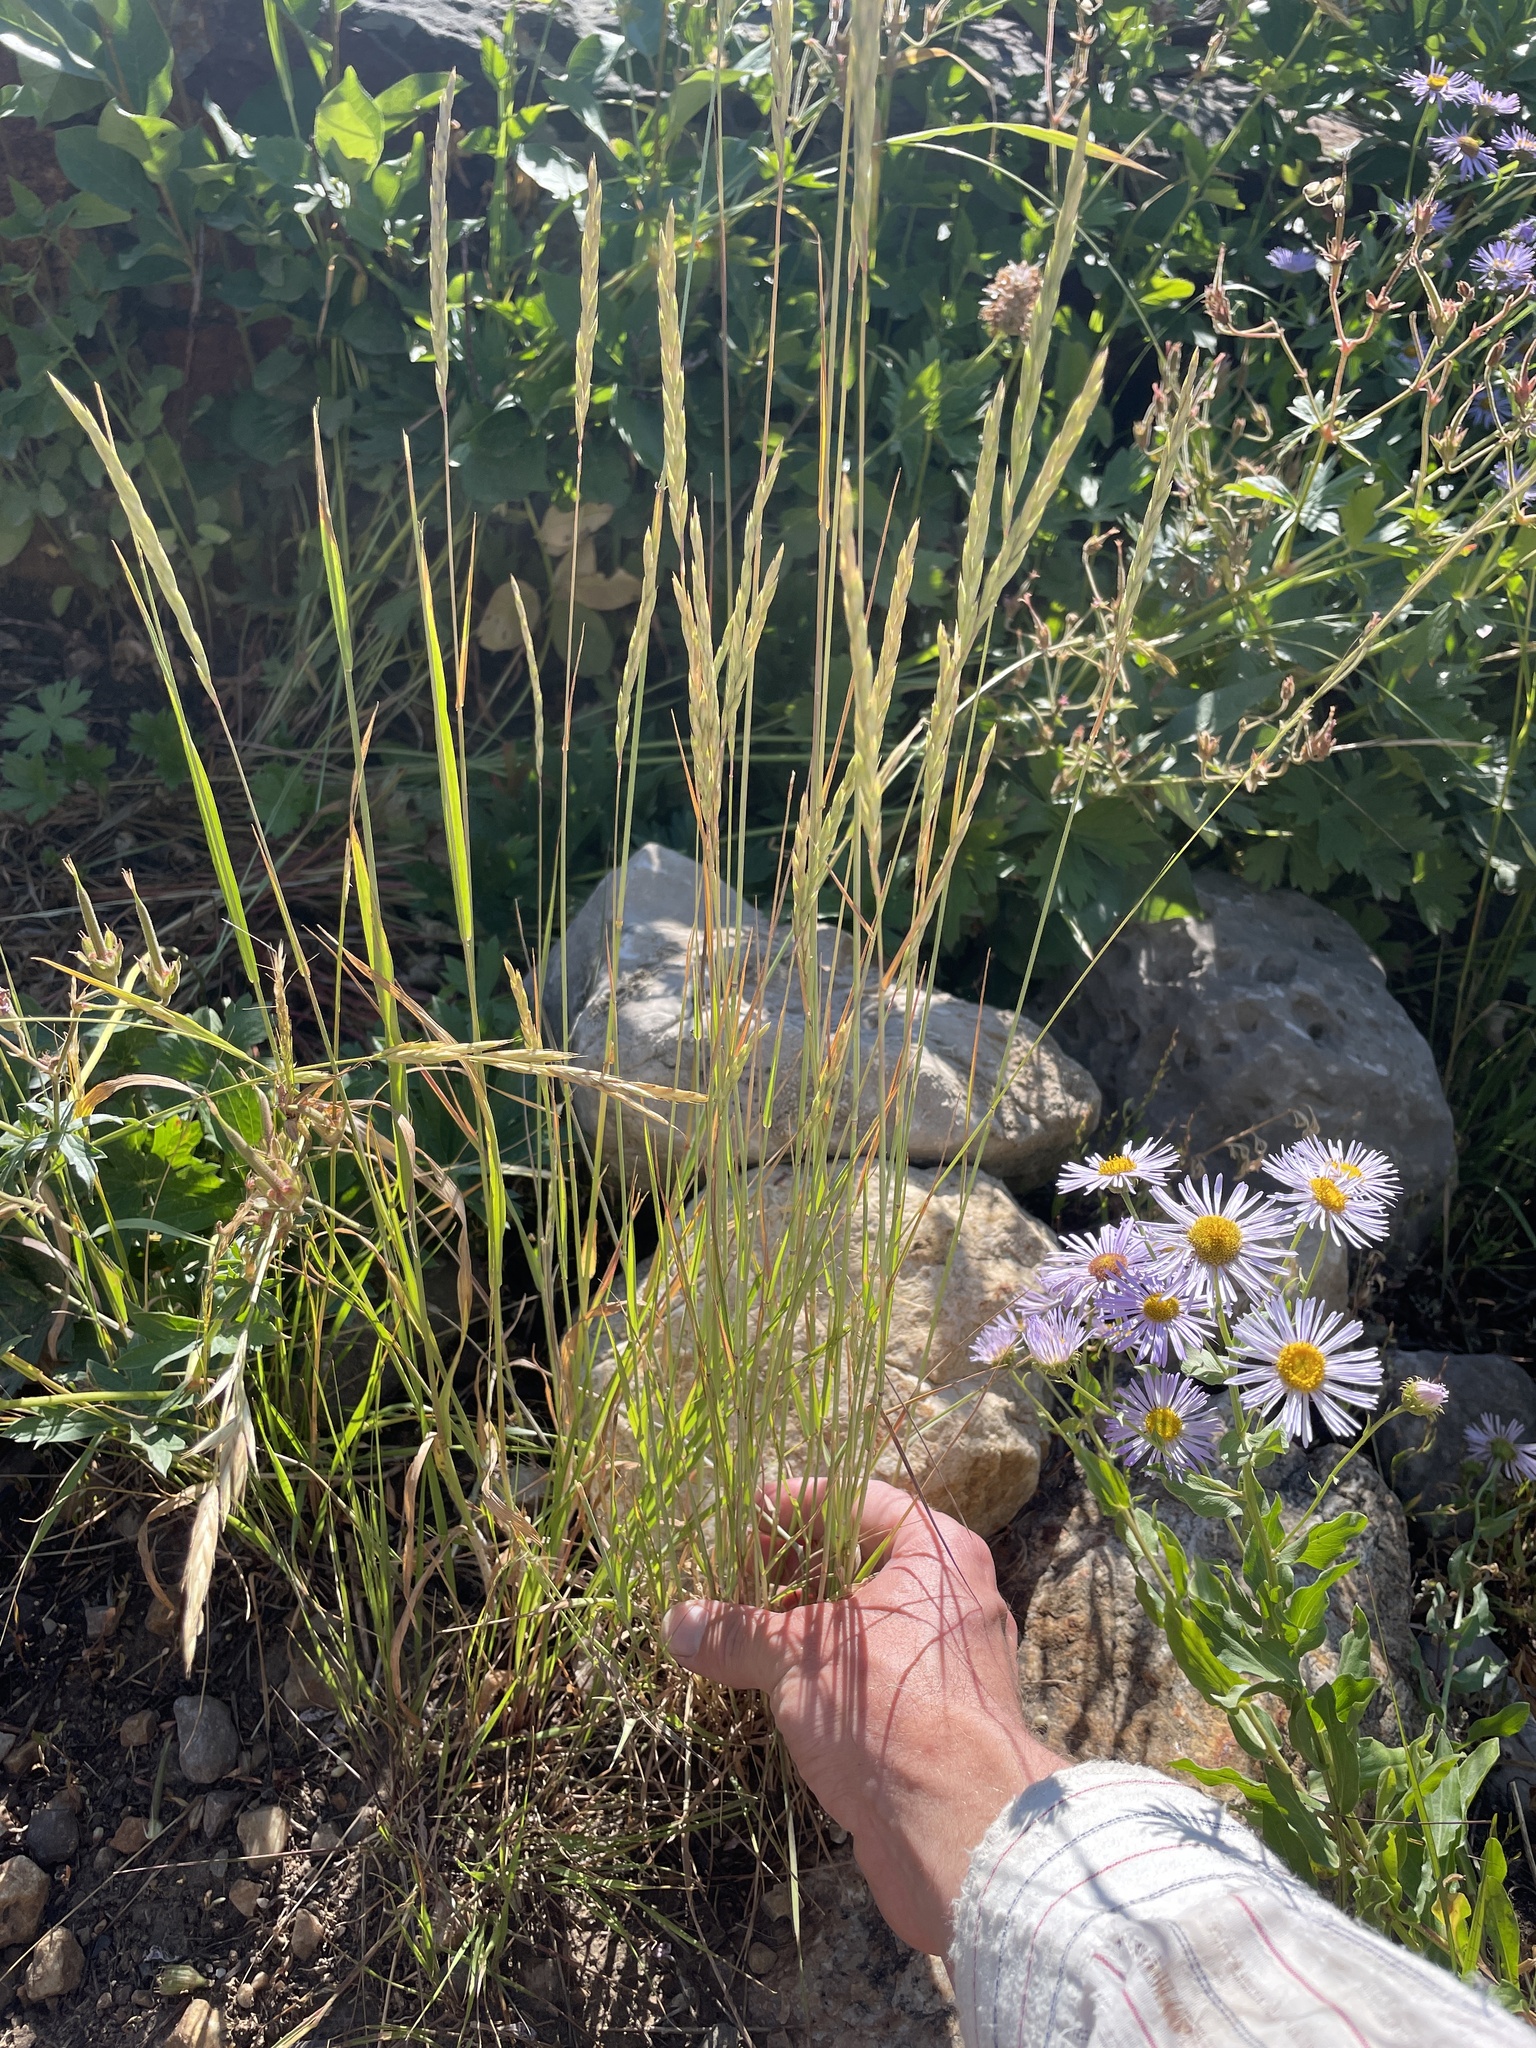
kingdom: Plantae
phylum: Tracheophyta
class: Liliopsida
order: Poales
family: Poaceae
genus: Elymus
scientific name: Elymus violaceus
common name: Arctic wheatgrass
